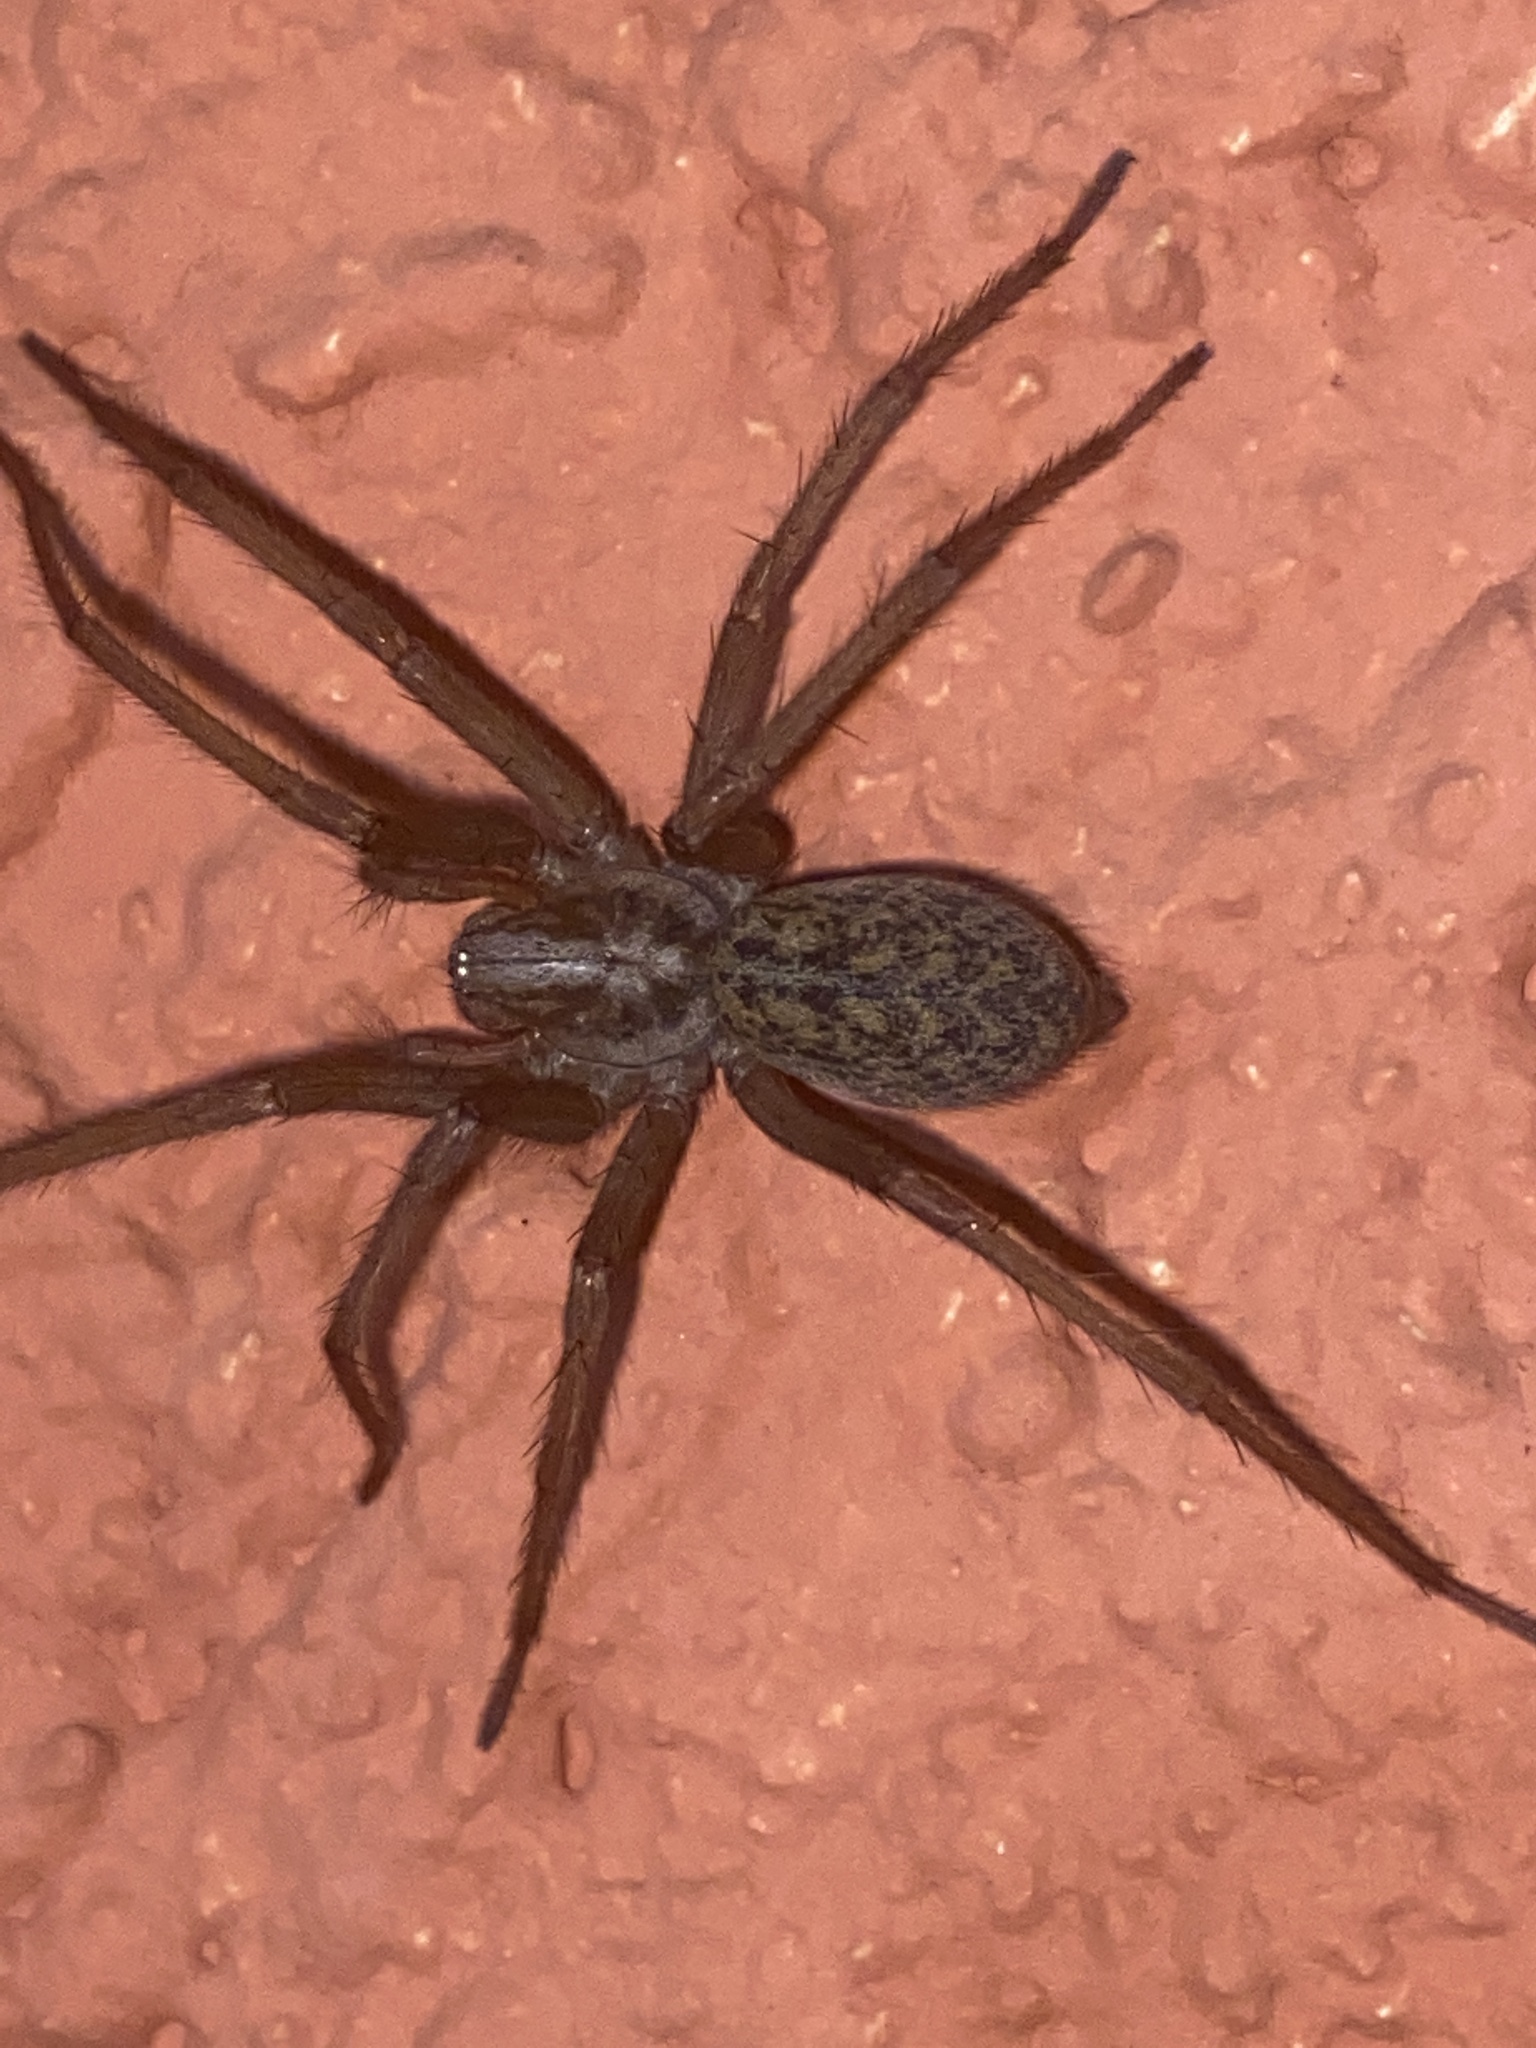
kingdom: Animalia
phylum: Arthropoda
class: Arachnida
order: Araneae
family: Agelenidae
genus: Eratigena
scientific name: Eratigena atrica
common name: Giant house spider
